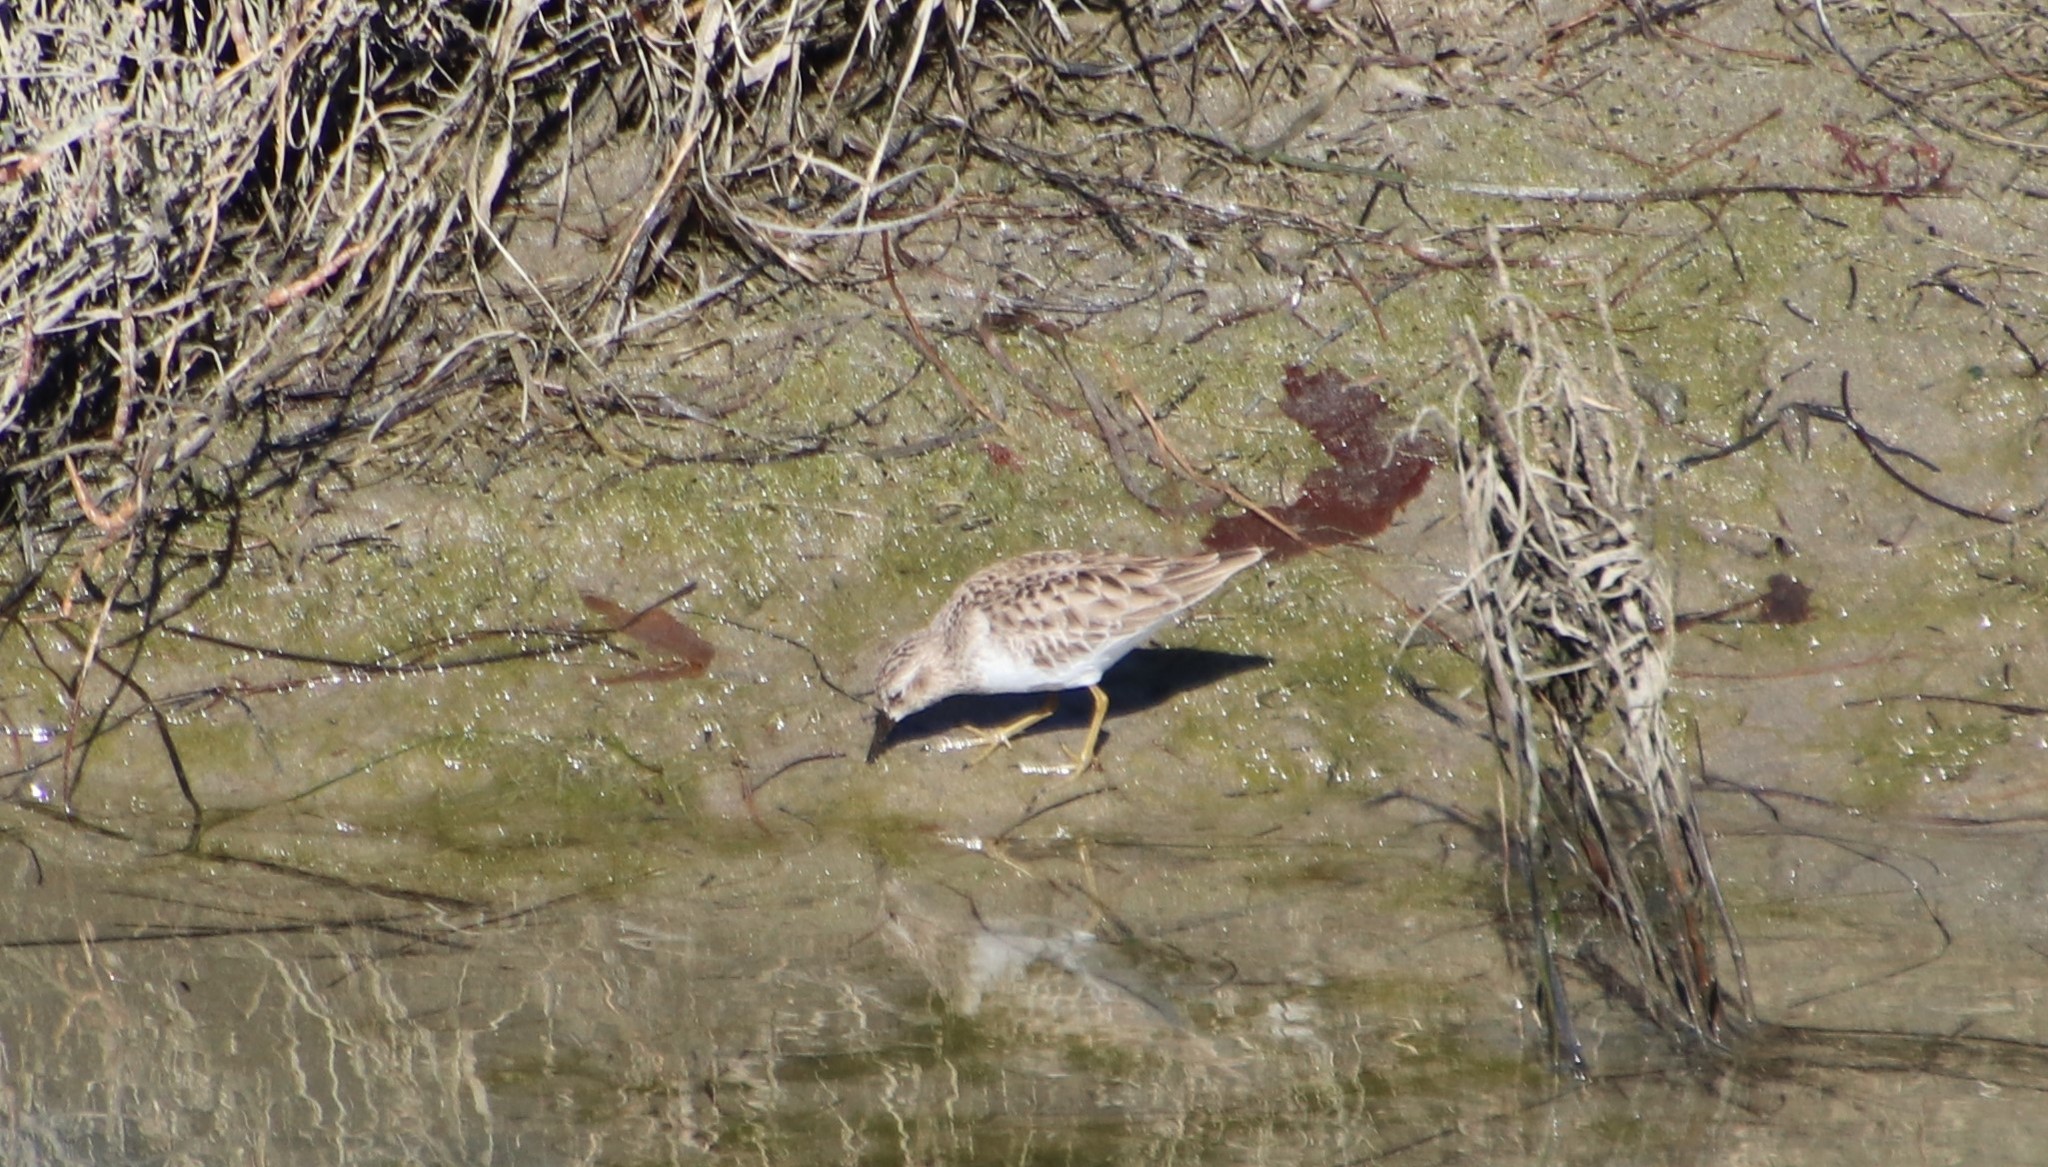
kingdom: Animalia
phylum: Chordata
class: Aves
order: Charadriiformes
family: Scolopacidae
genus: Calidris
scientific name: Calidris minutilla
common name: Least sandpiper
